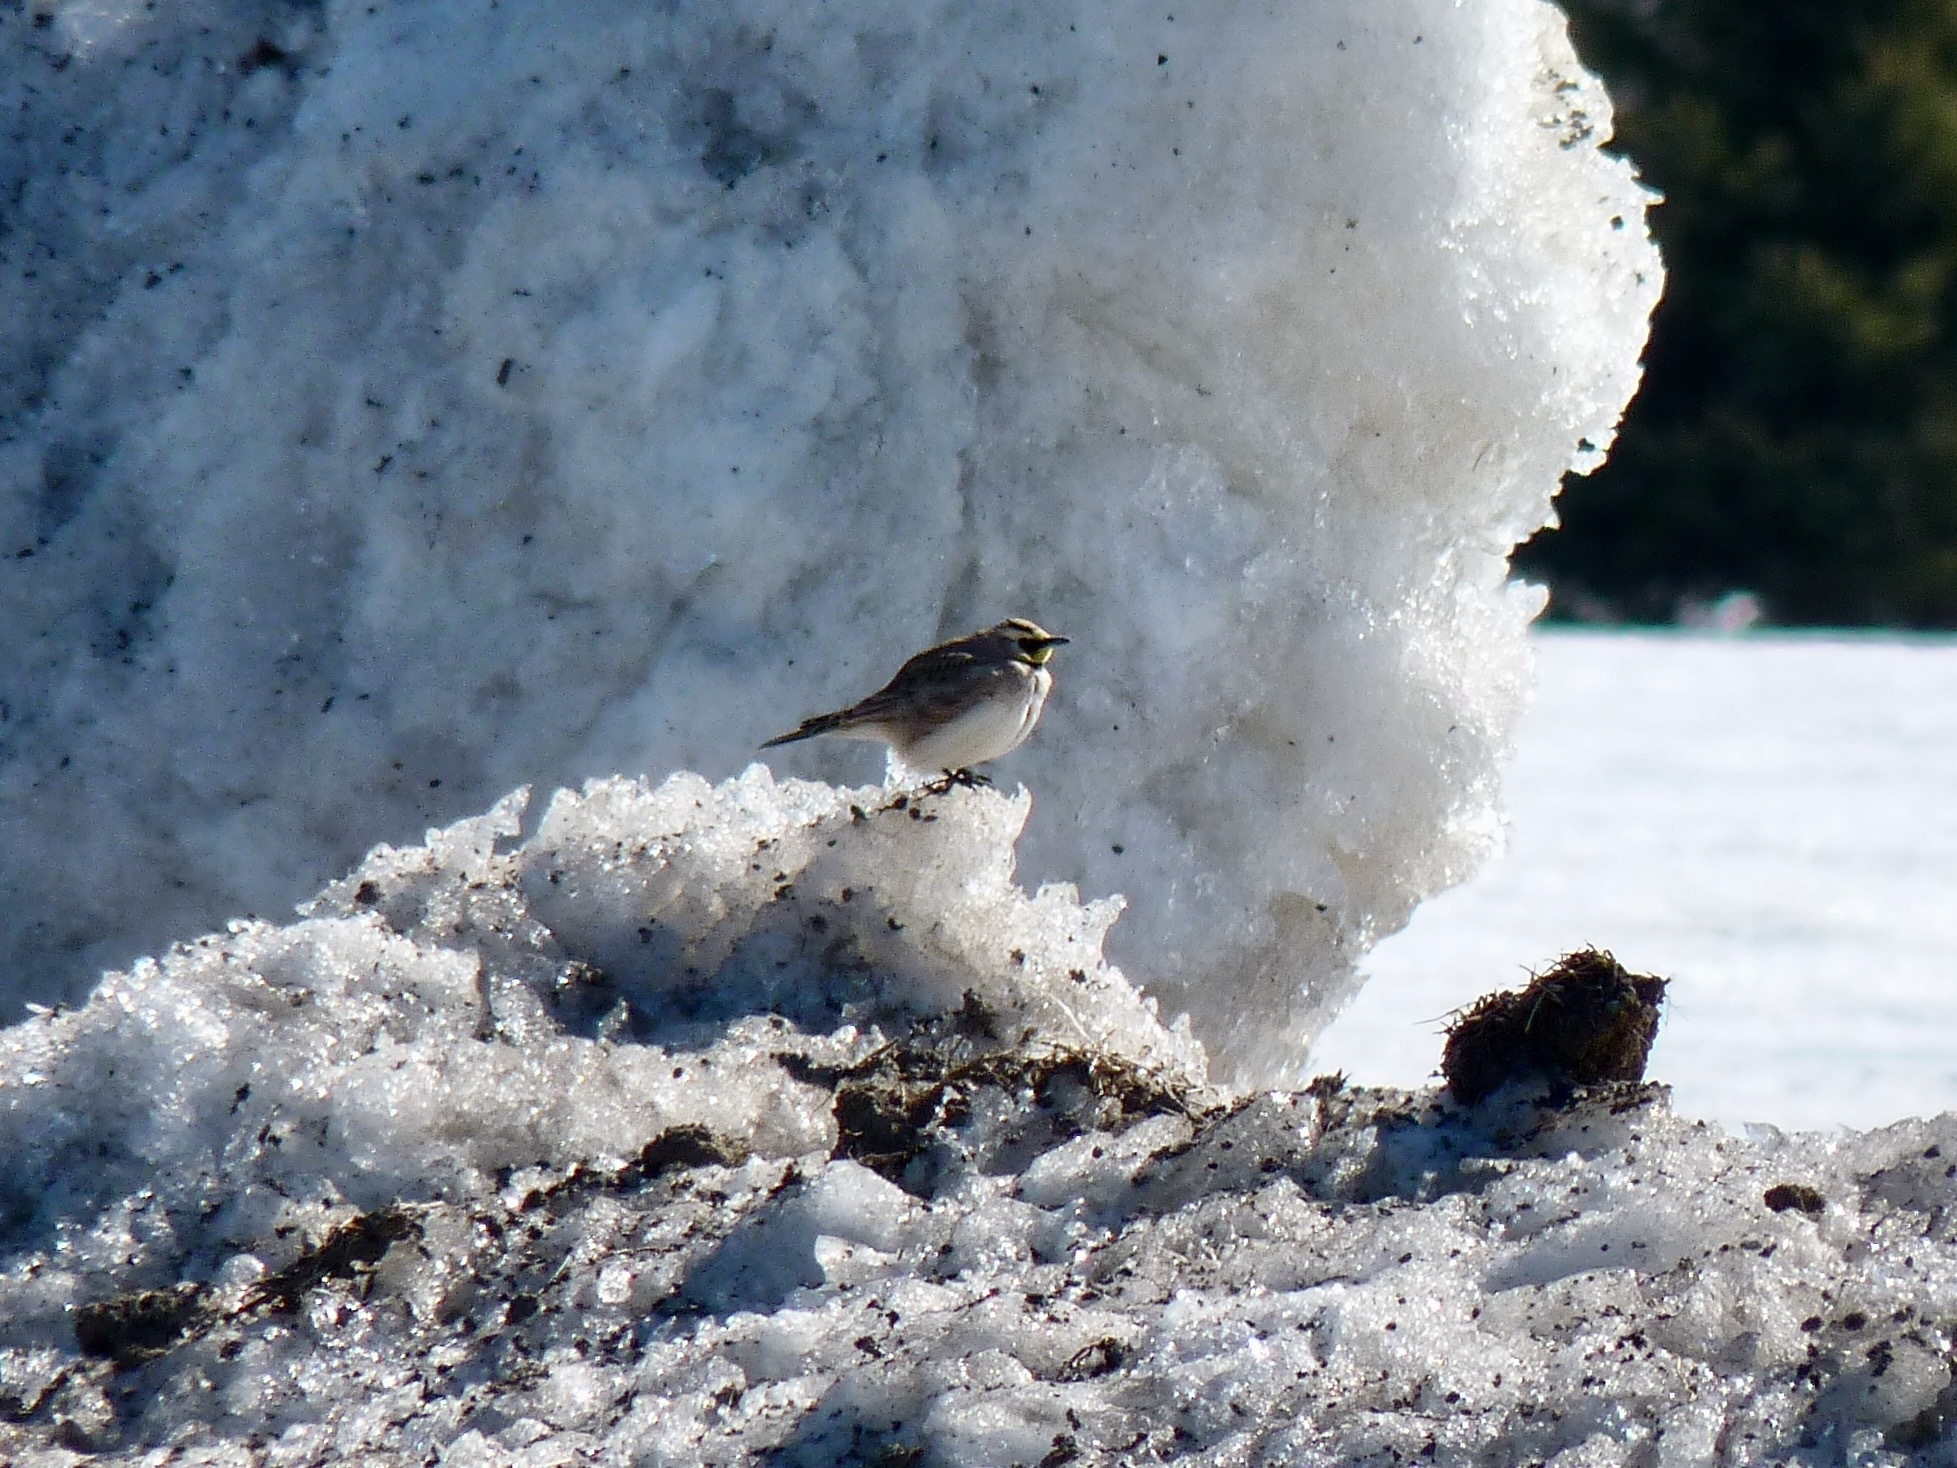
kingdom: Animalia
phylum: Chordata
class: Aves
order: Passeriformes
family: Alaudidae
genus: Eremophila
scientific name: Eremophila alpestris
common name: Horned lark
